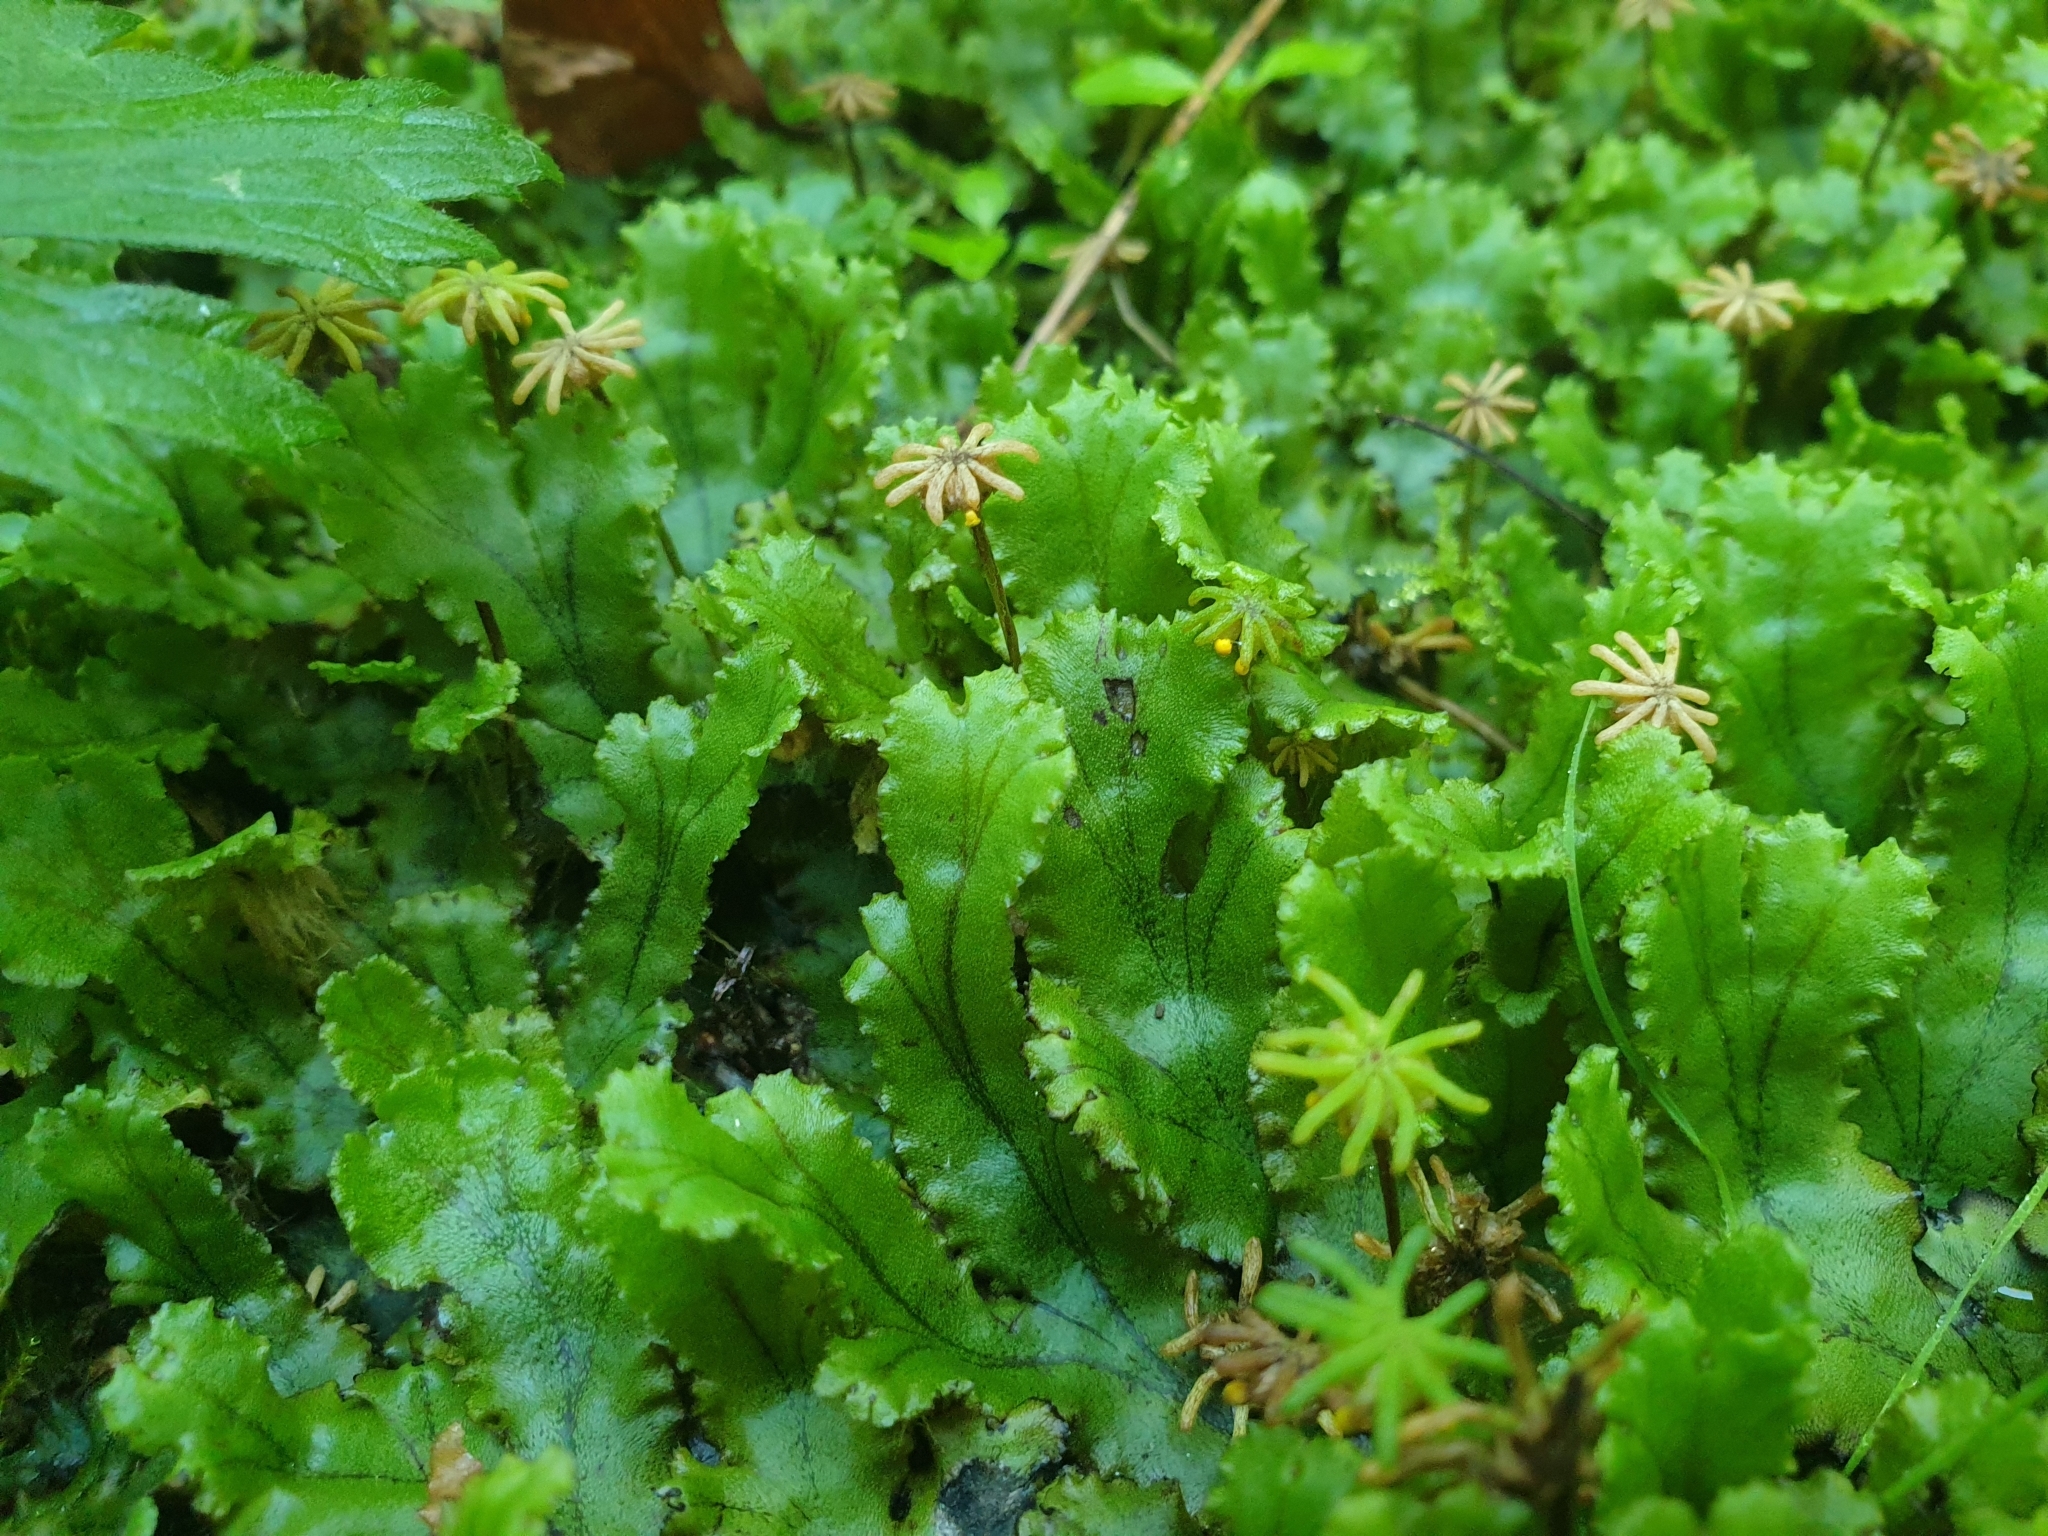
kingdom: Plantae
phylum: Marchantiophyta
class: Marchantiopsida
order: Marchantiales
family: Marchantiaceae
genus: Marchantia
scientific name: Marchantia polymorpha
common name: Common liverwort
